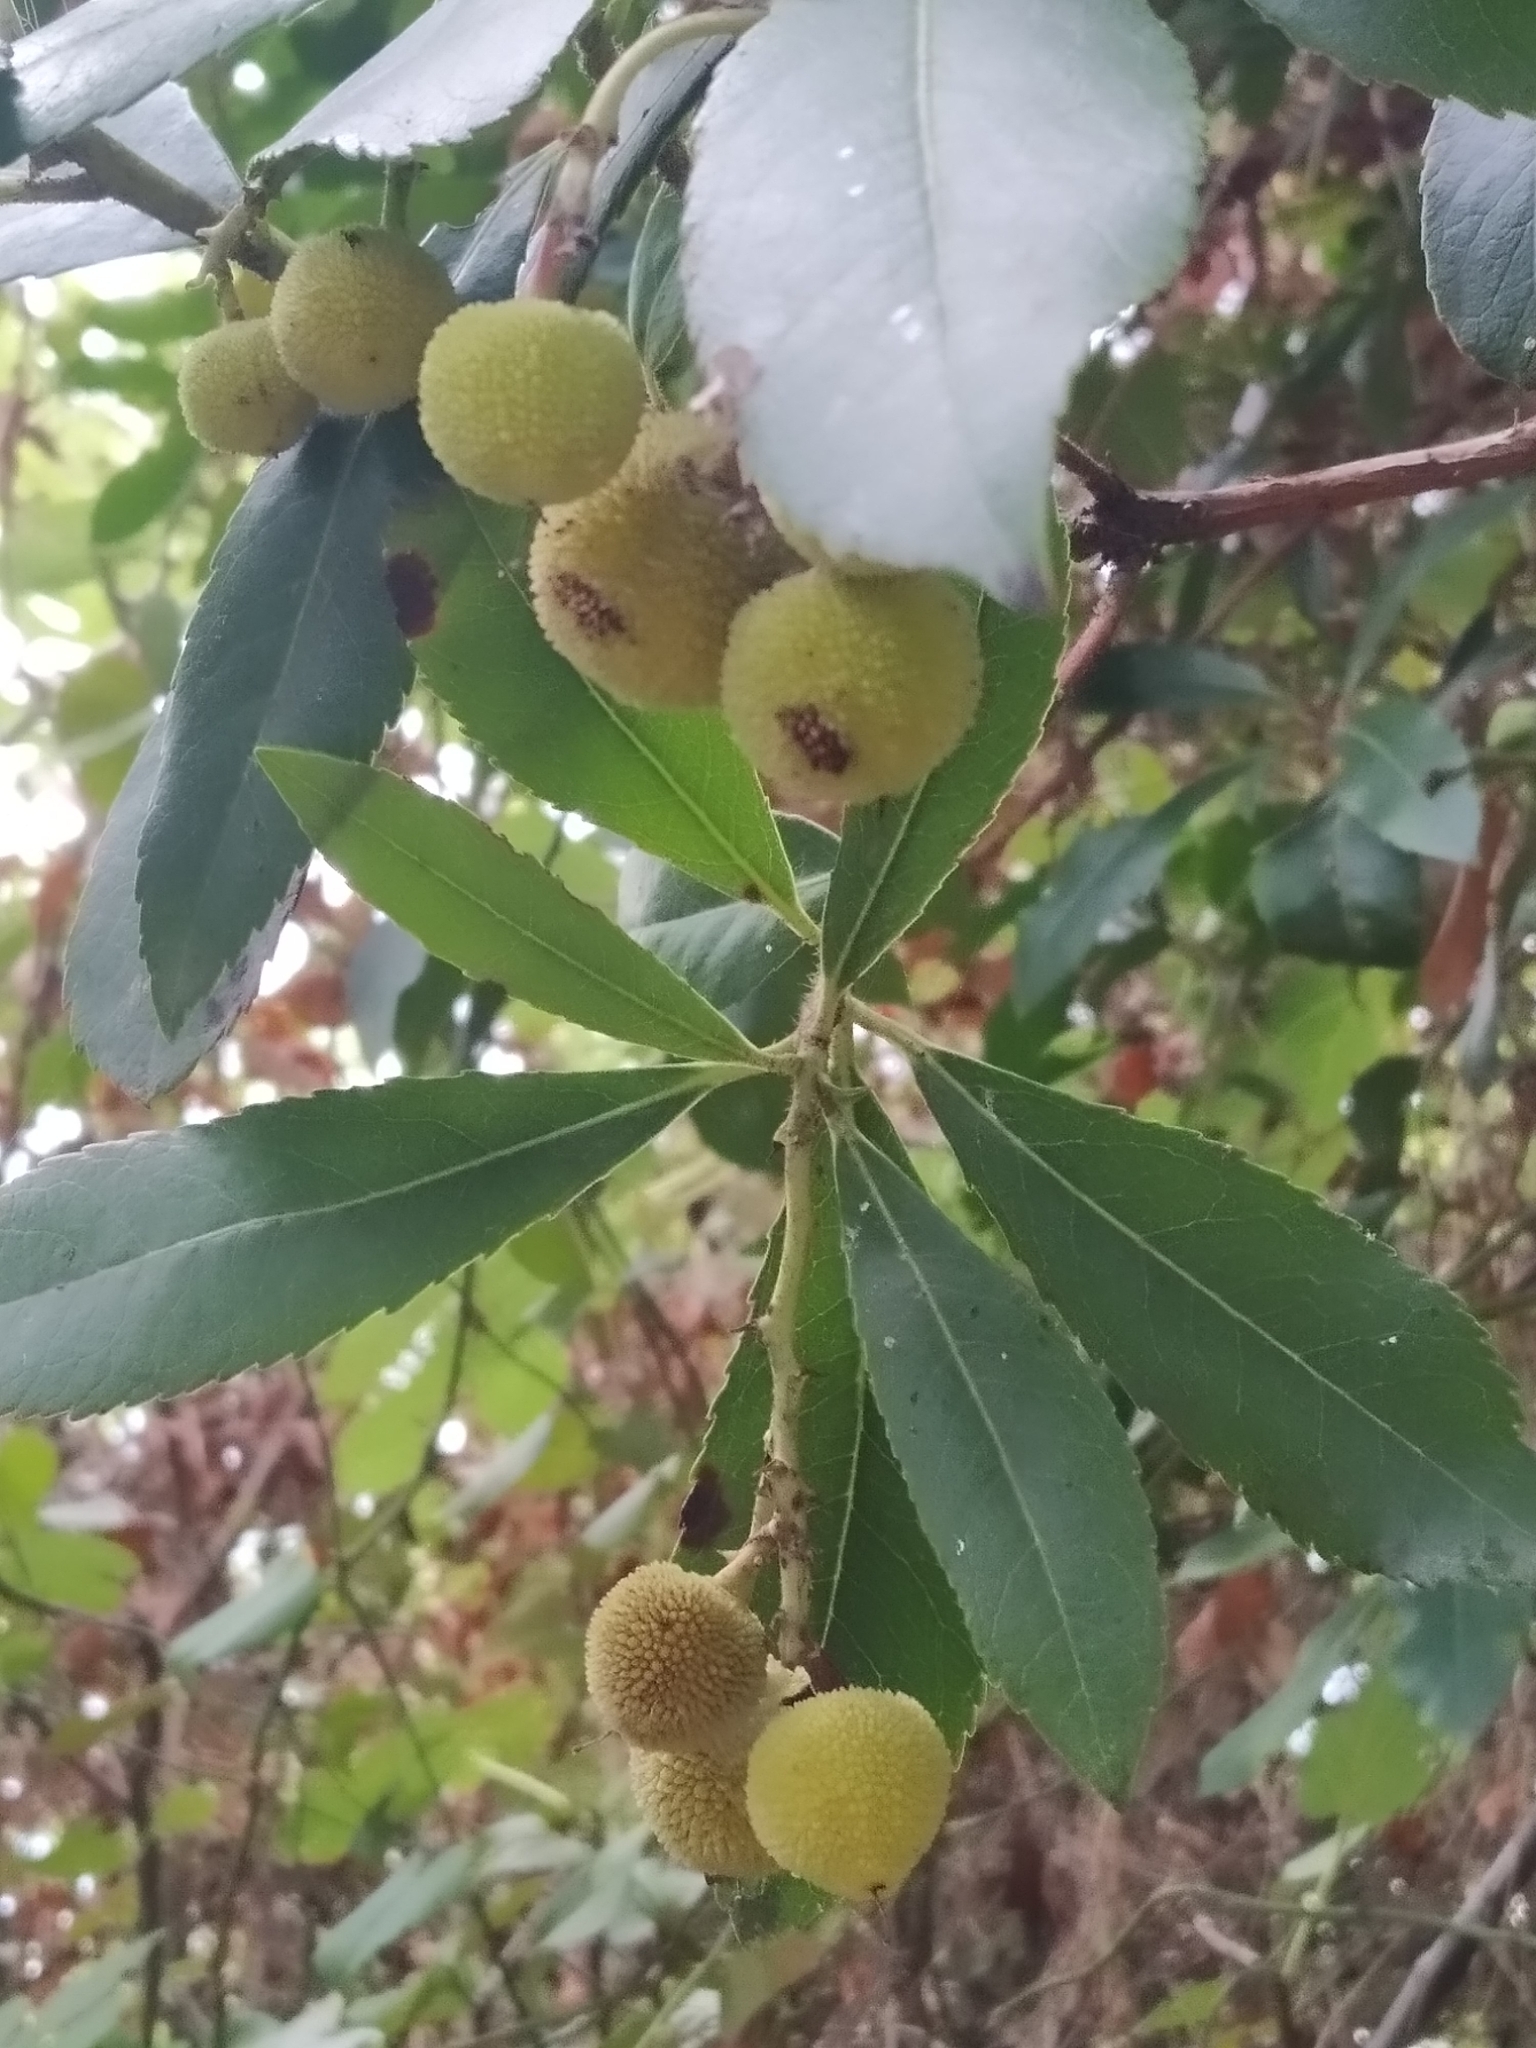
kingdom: Plantae
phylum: Tracheophyta
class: Magnoliopsida
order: Ericales
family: Ericaceae
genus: Arbutus
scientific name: Arbutus unedo
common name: Strawberry-tree
